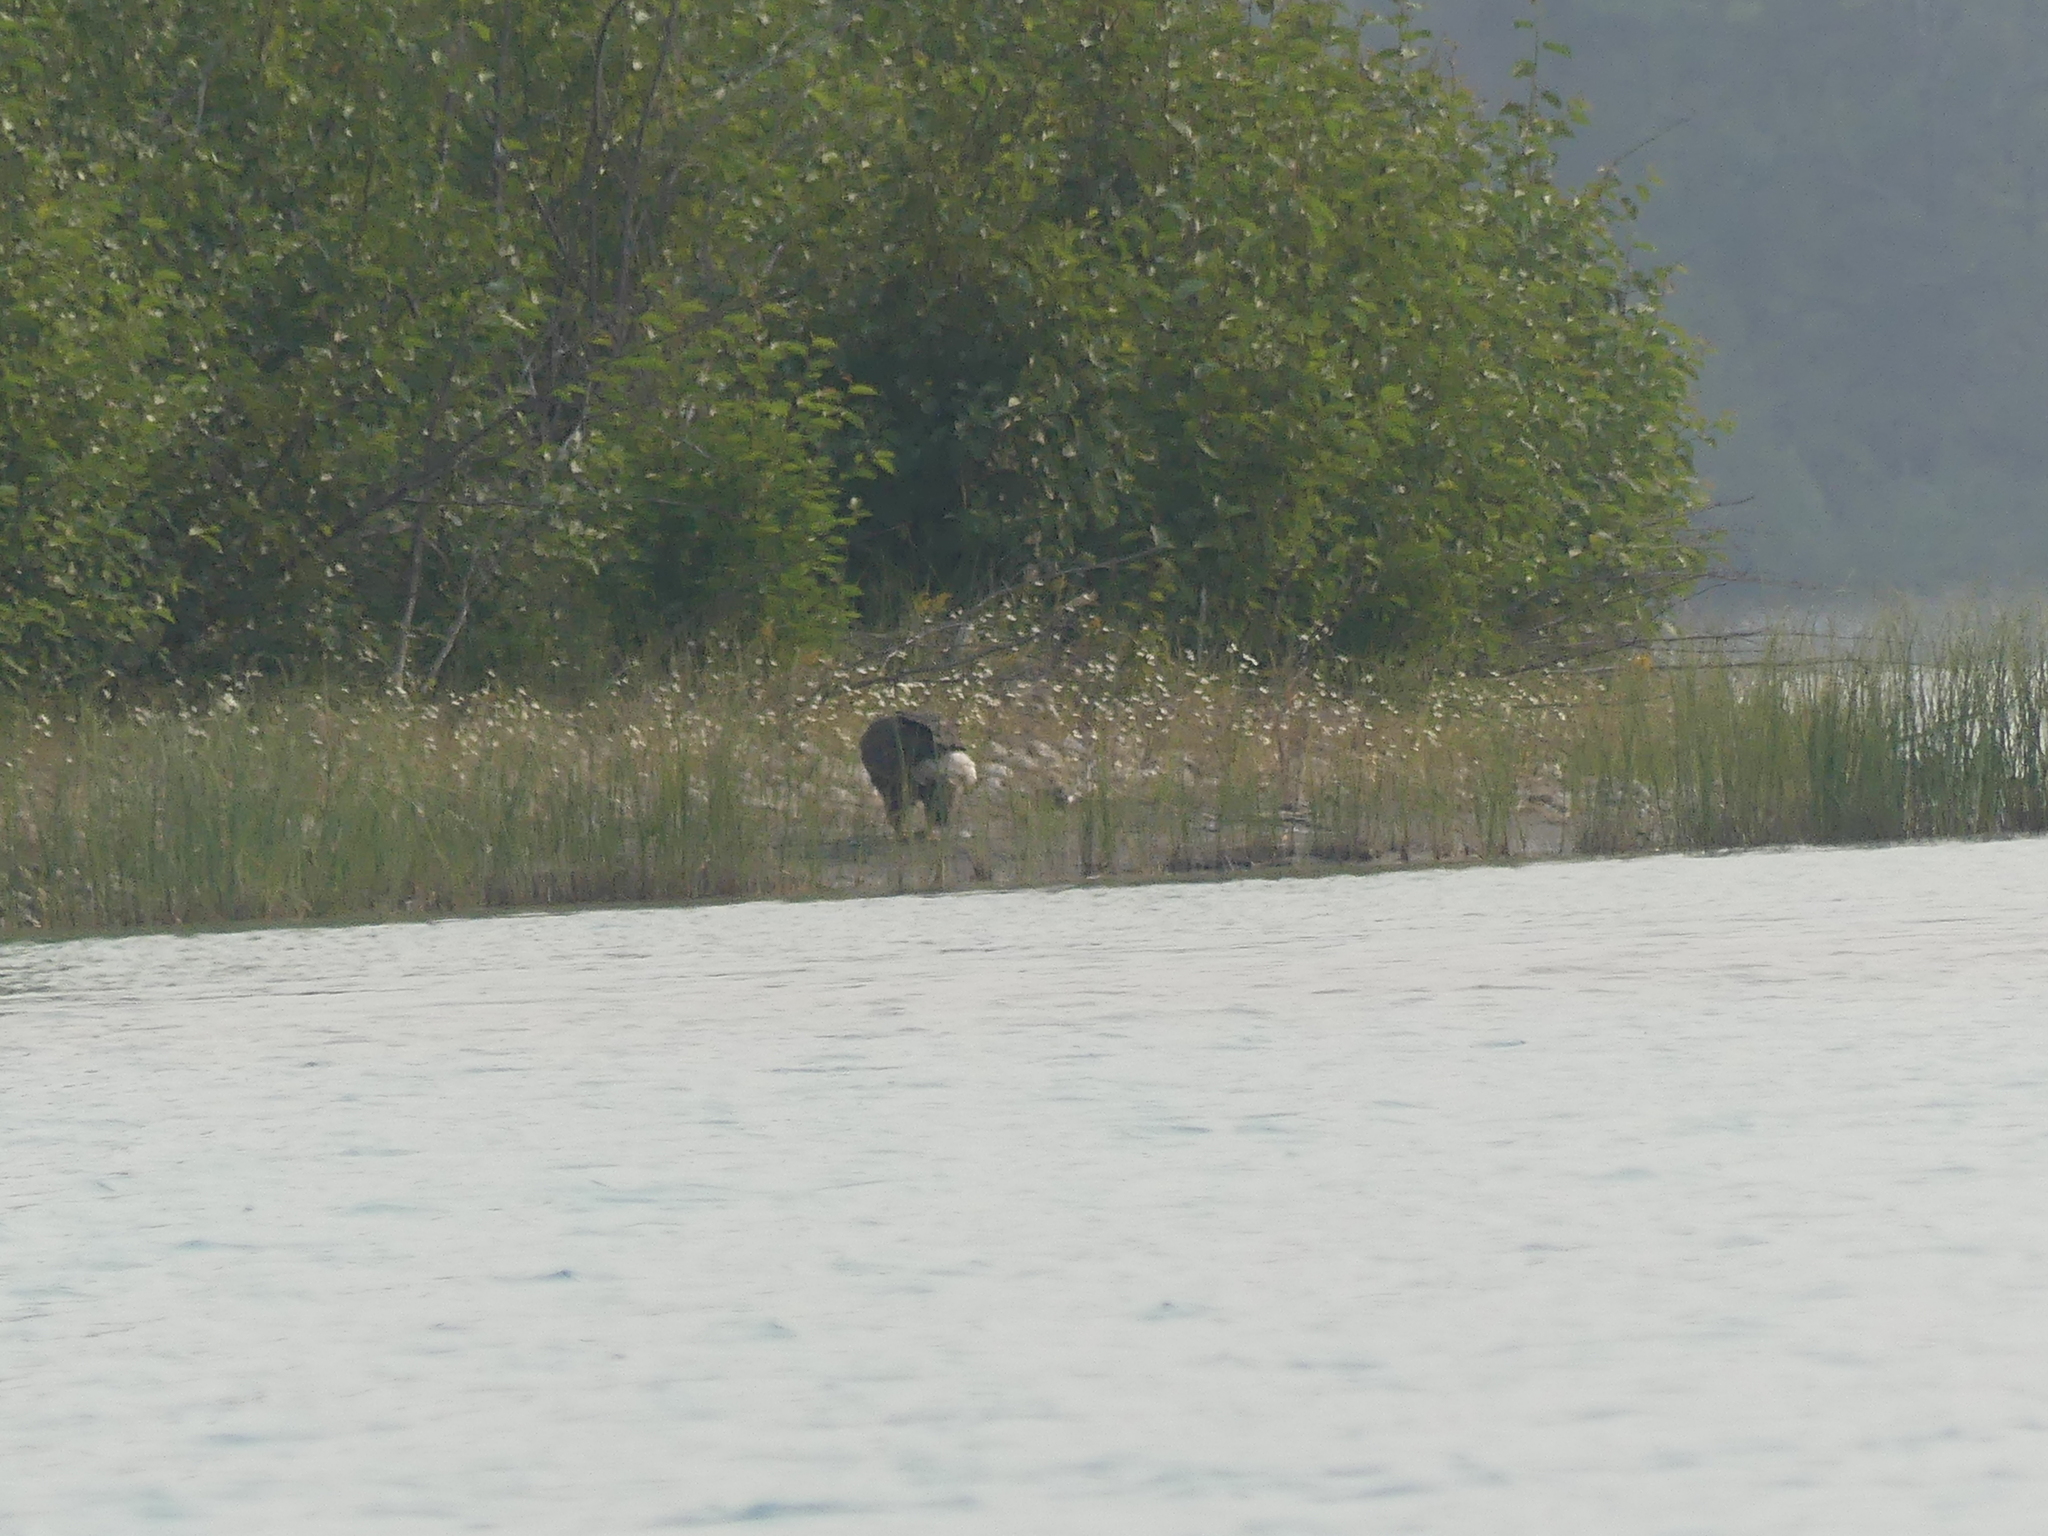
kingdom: Animalia
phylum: Chordata
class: Aves
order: Accipitriformes
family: Accipitridae
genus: Haliaeetus
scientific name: Haliaeetus leucocephalus
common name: Bald eagle
